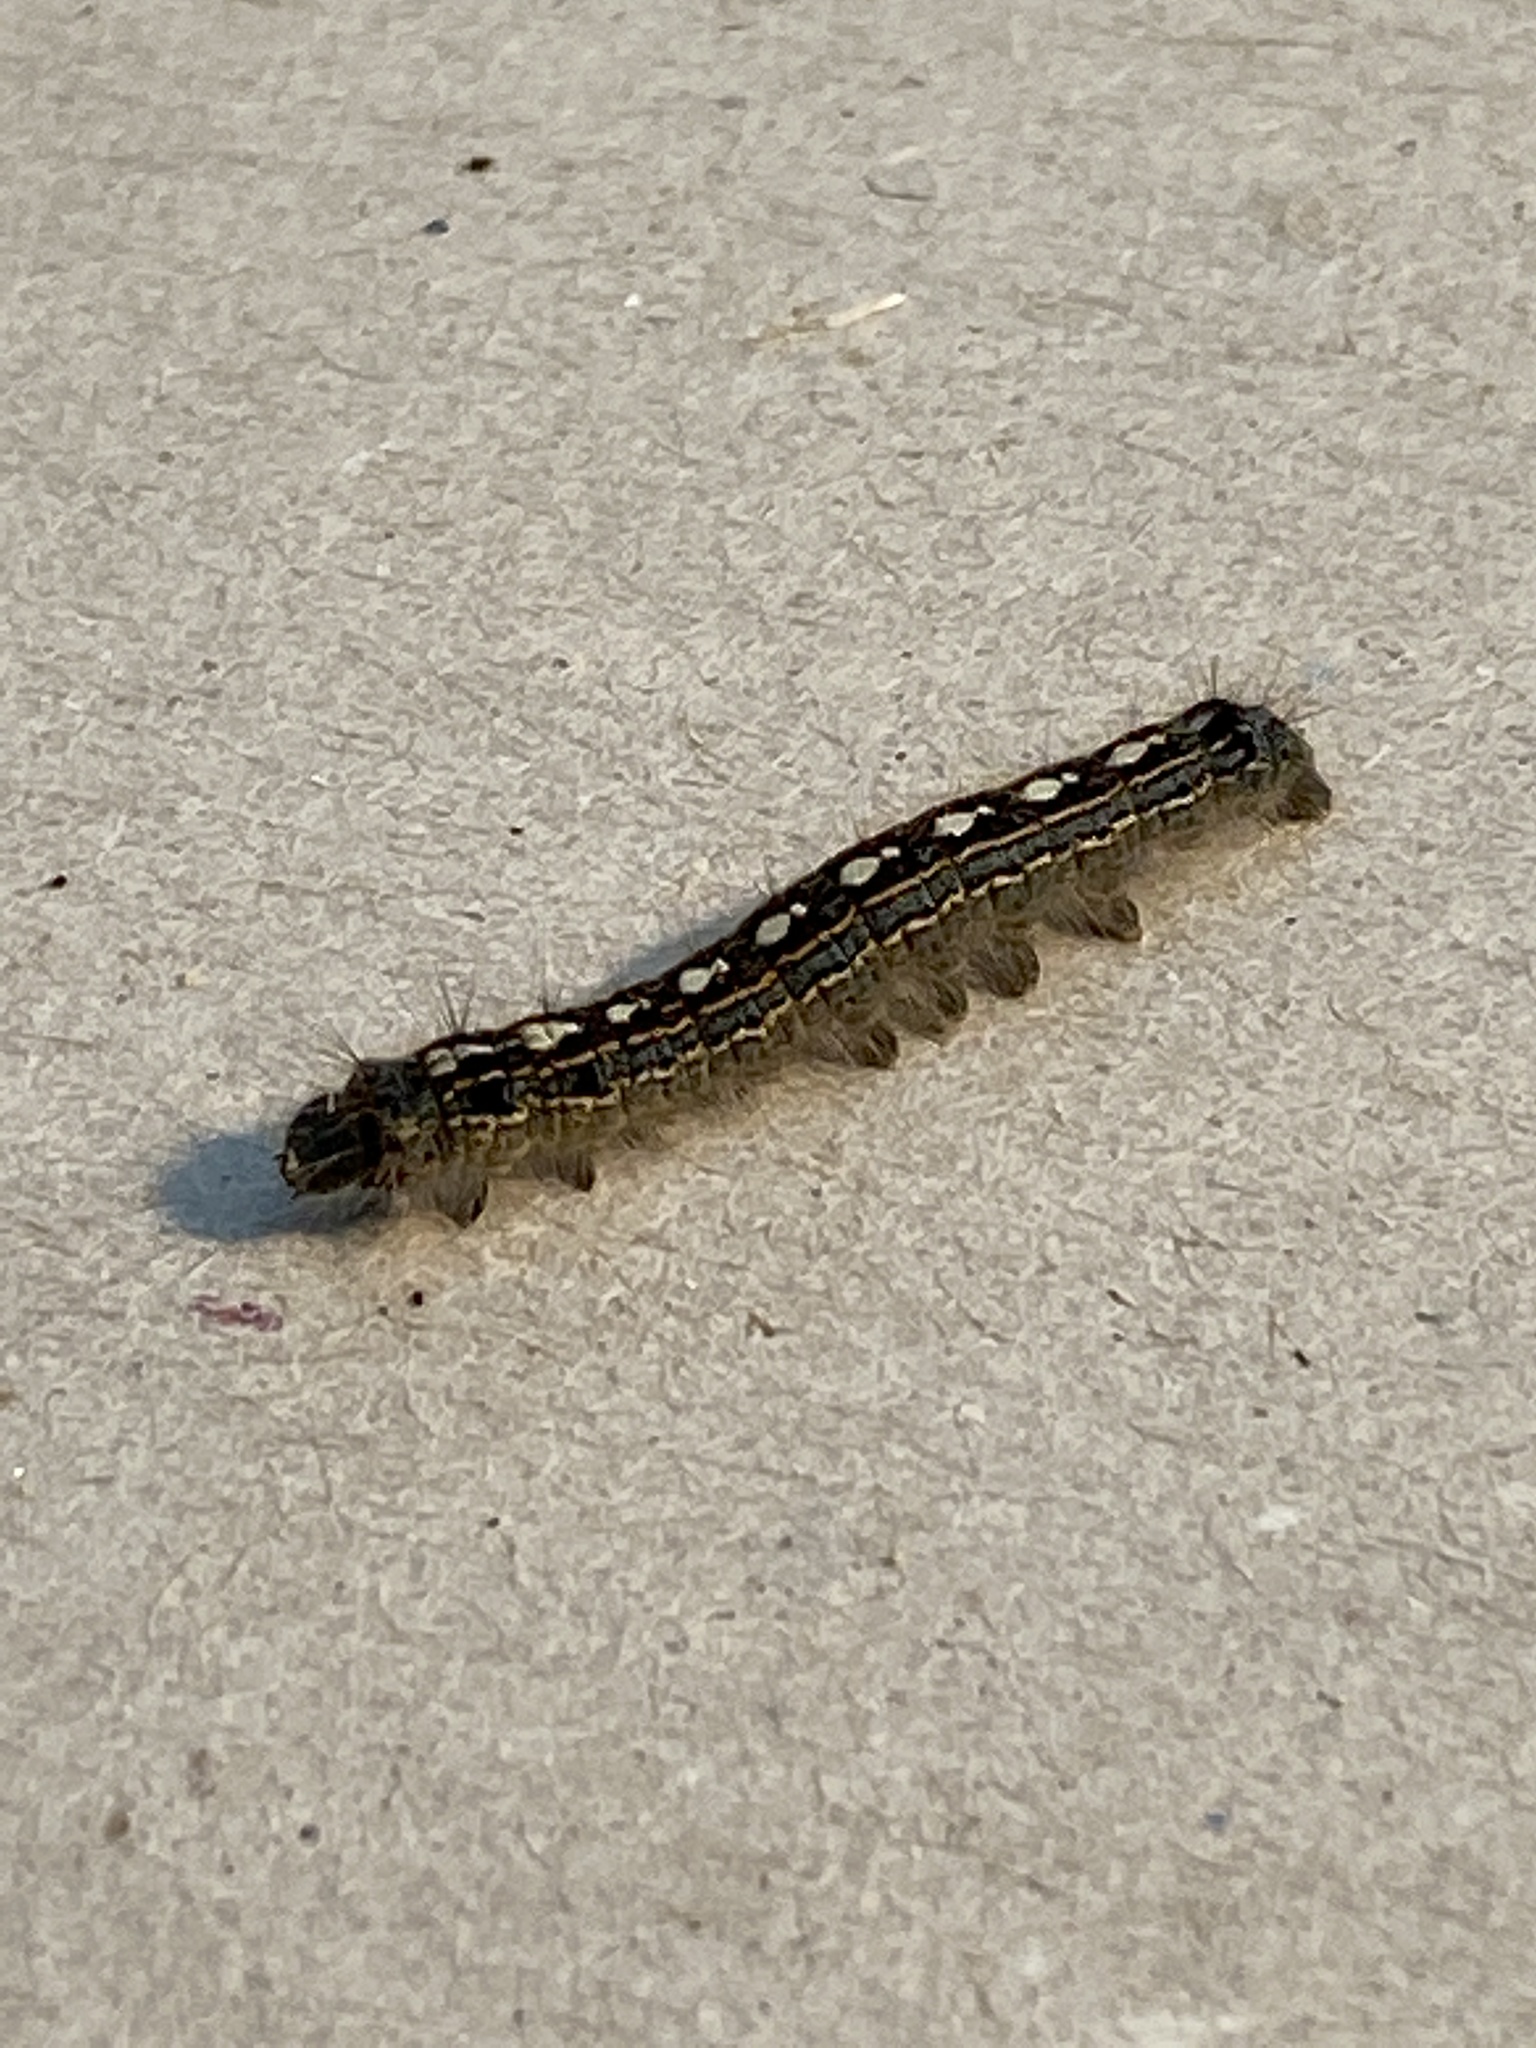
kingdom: Animalia
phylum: Arthropoda
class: Insecta
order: Lepidoptera
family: Lasiocampidae
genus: Malacosoma
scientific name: Malacosoma disstria
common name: Forest tent caterpillar
